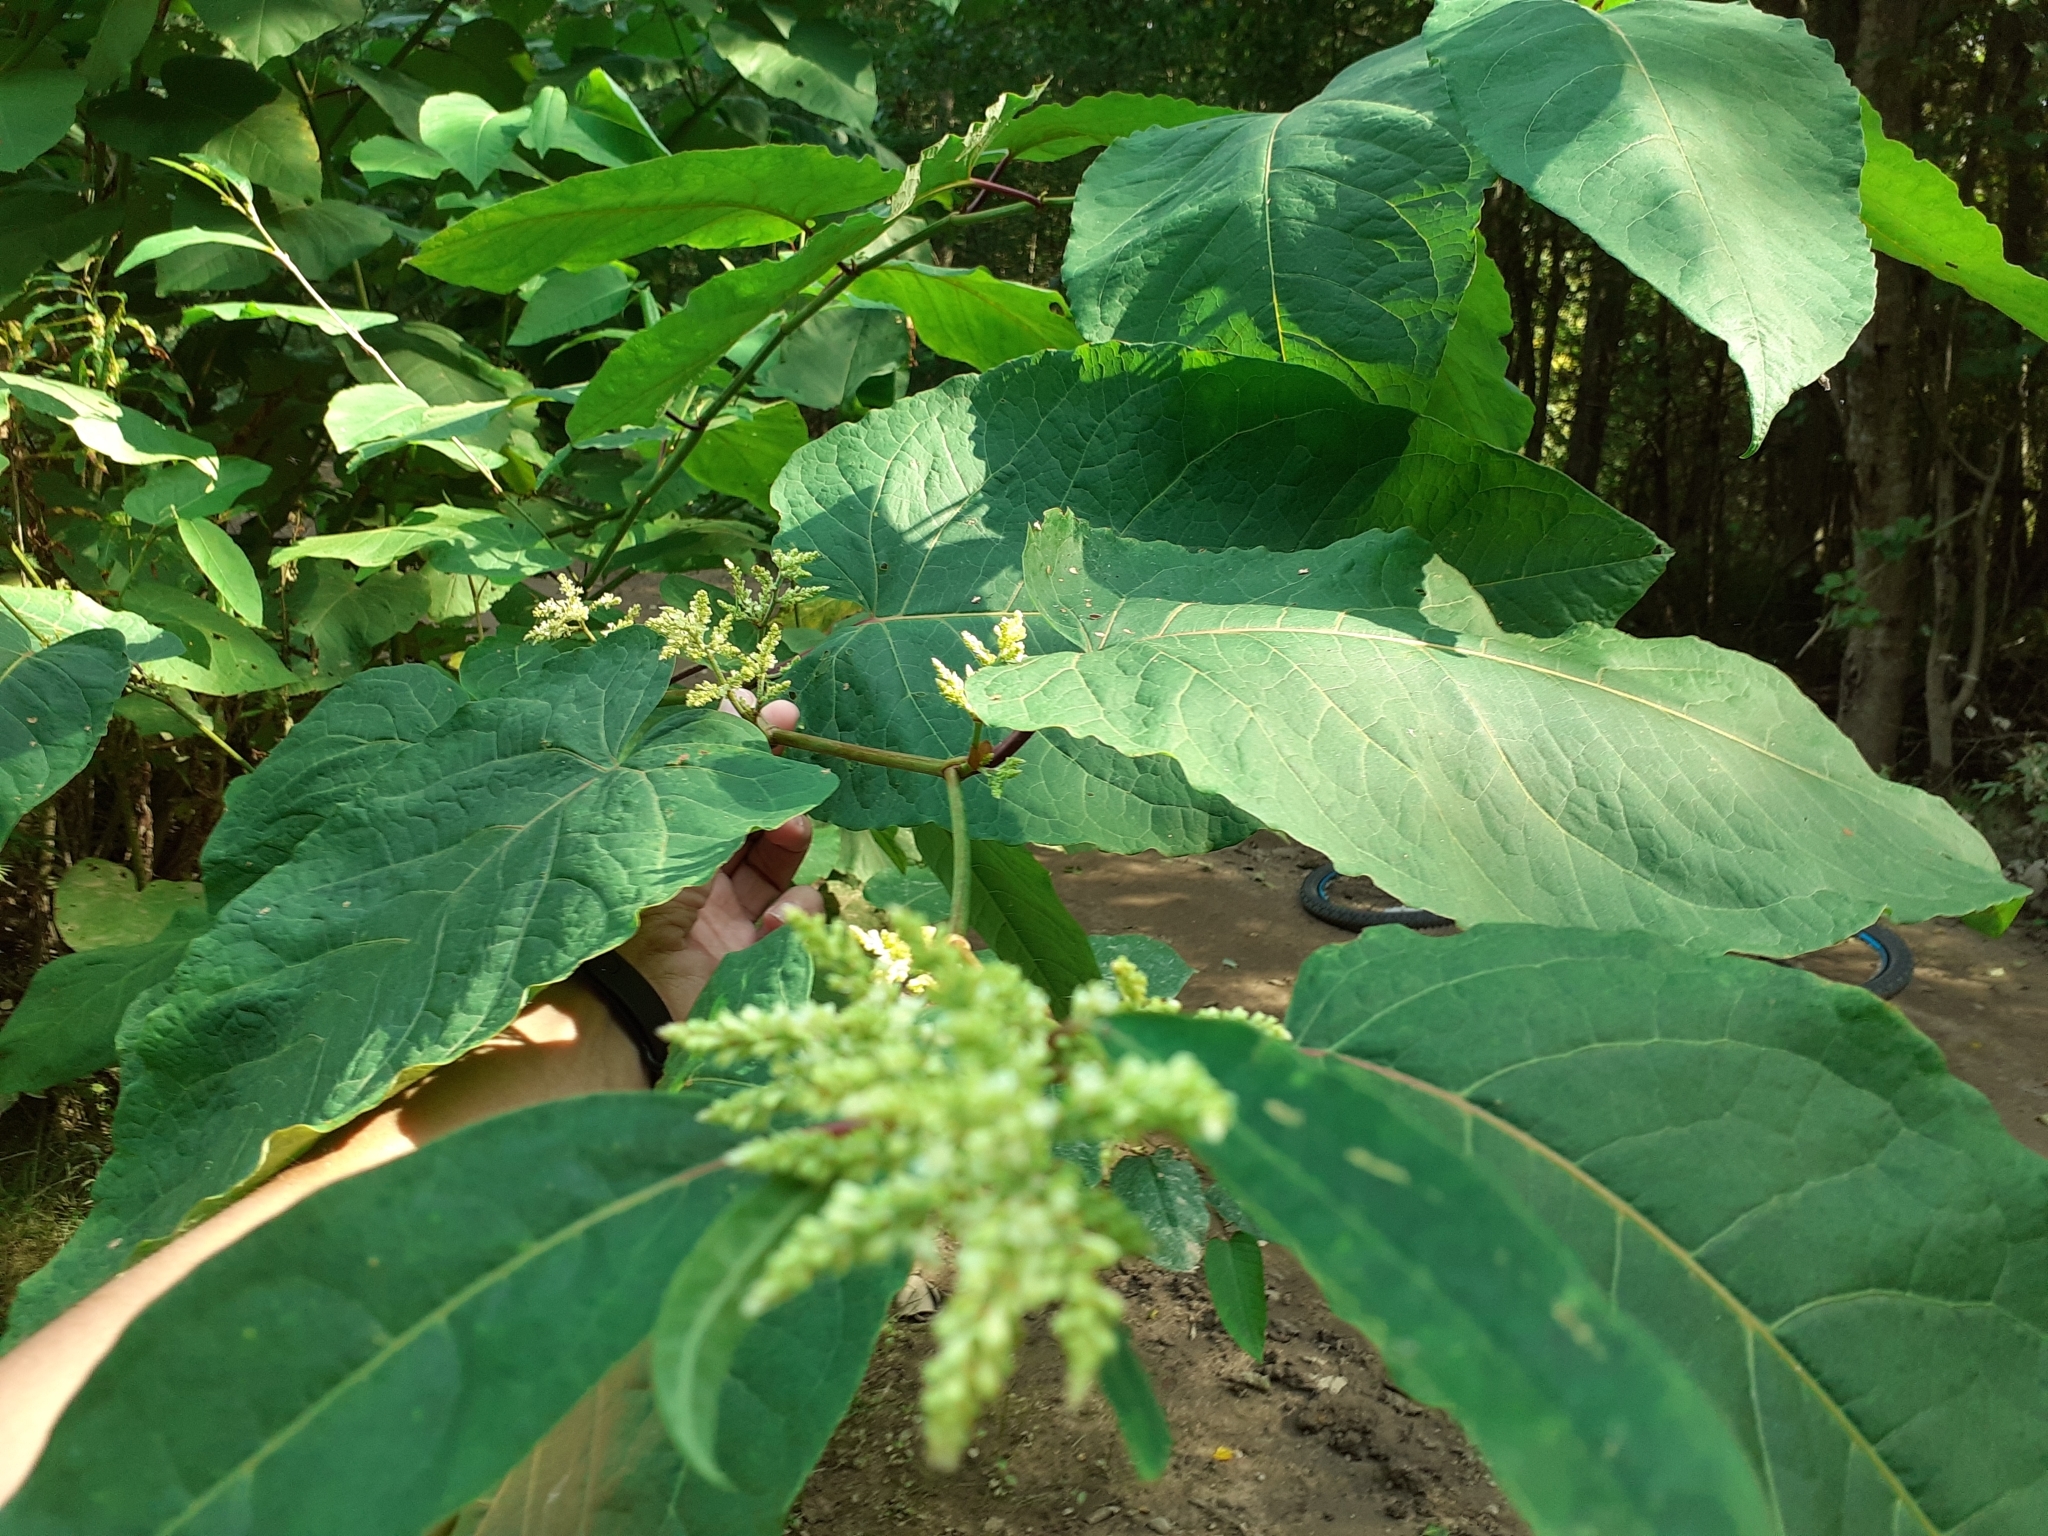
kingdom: Plantae
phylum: Tracheophyta
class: Magnoliopsida
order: Caryophyllales
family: Polygonaceae
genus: Reynoutria
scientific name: Reynoutria sachalinensis
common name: Giant knotweed
